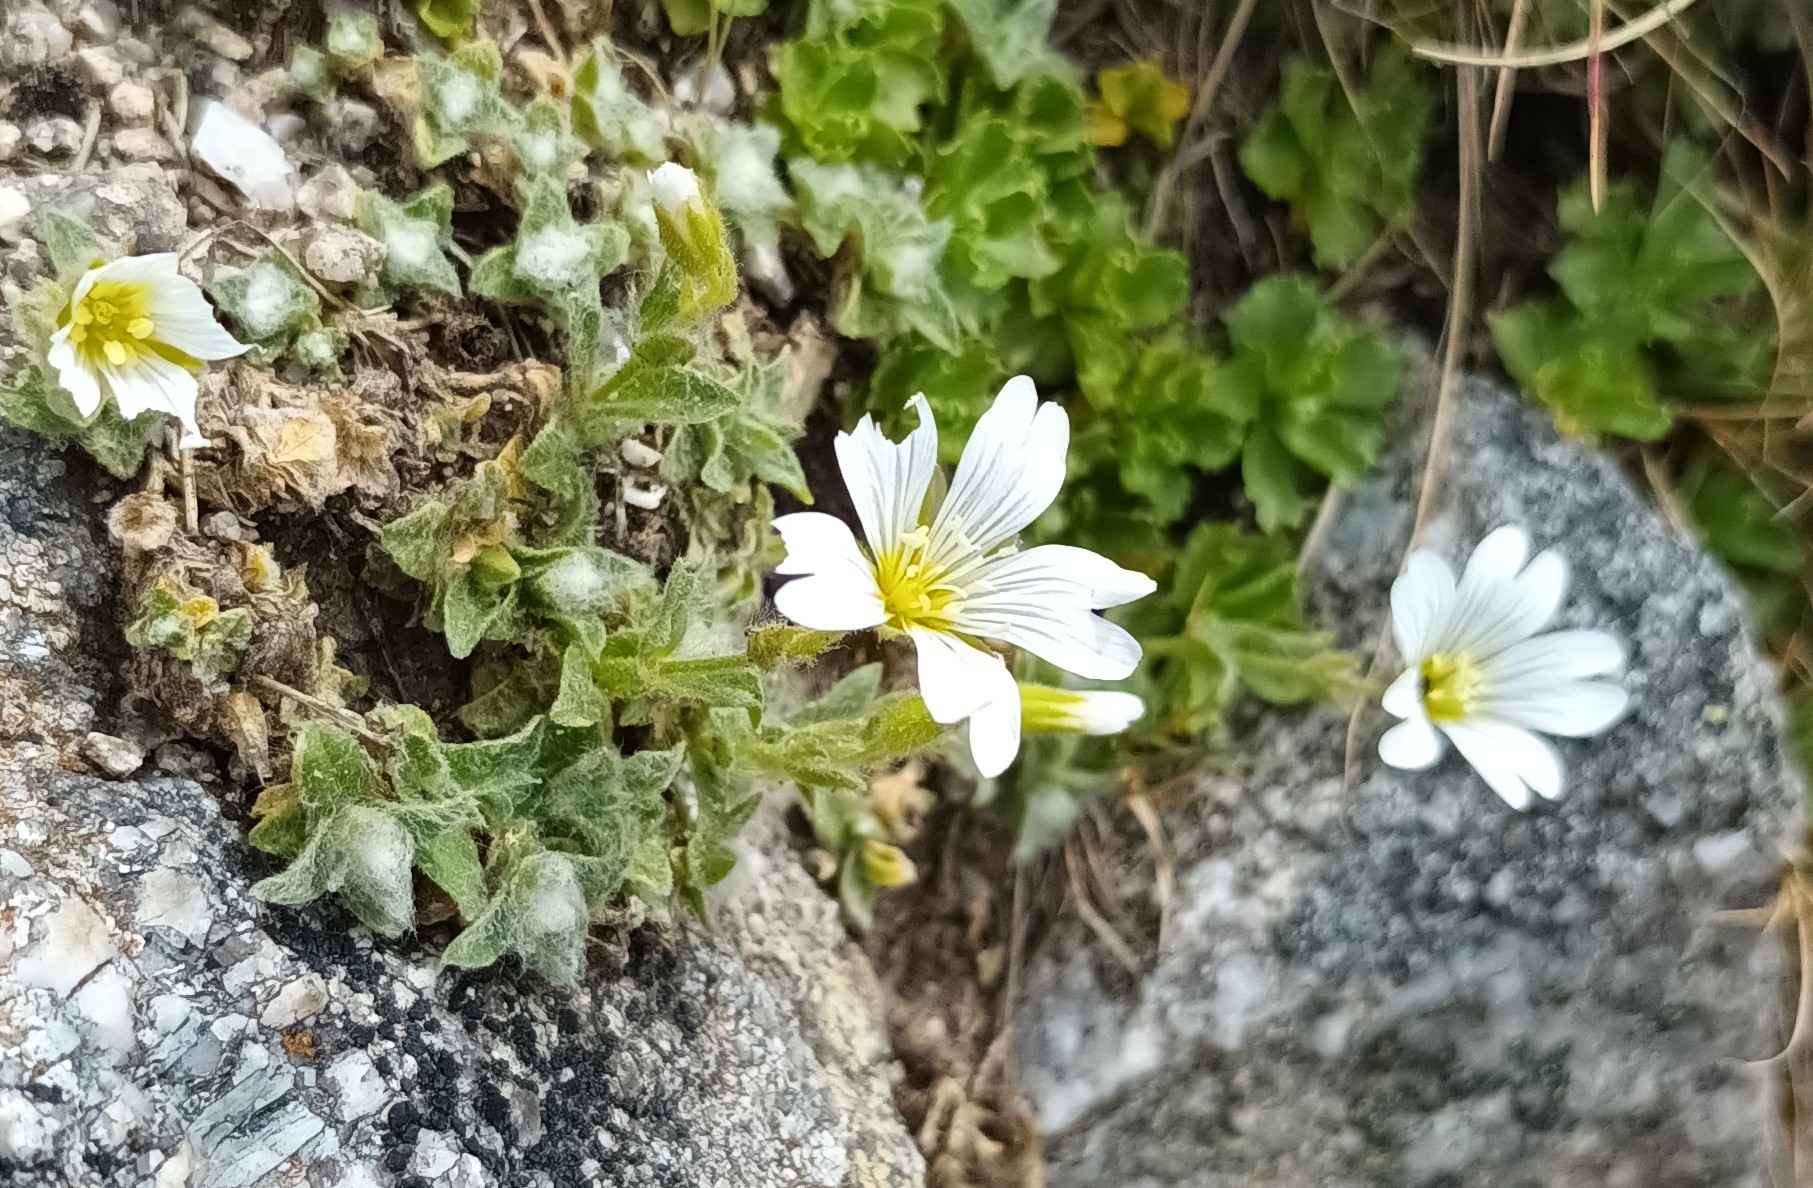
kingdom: Plantae
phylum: Tracheophyta
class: Magnoliopsida
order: Caryophyllales
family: Caryophyllaceae
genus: Cerastium
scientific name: Cerastium alpinum
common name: Alpine mouse-ear
